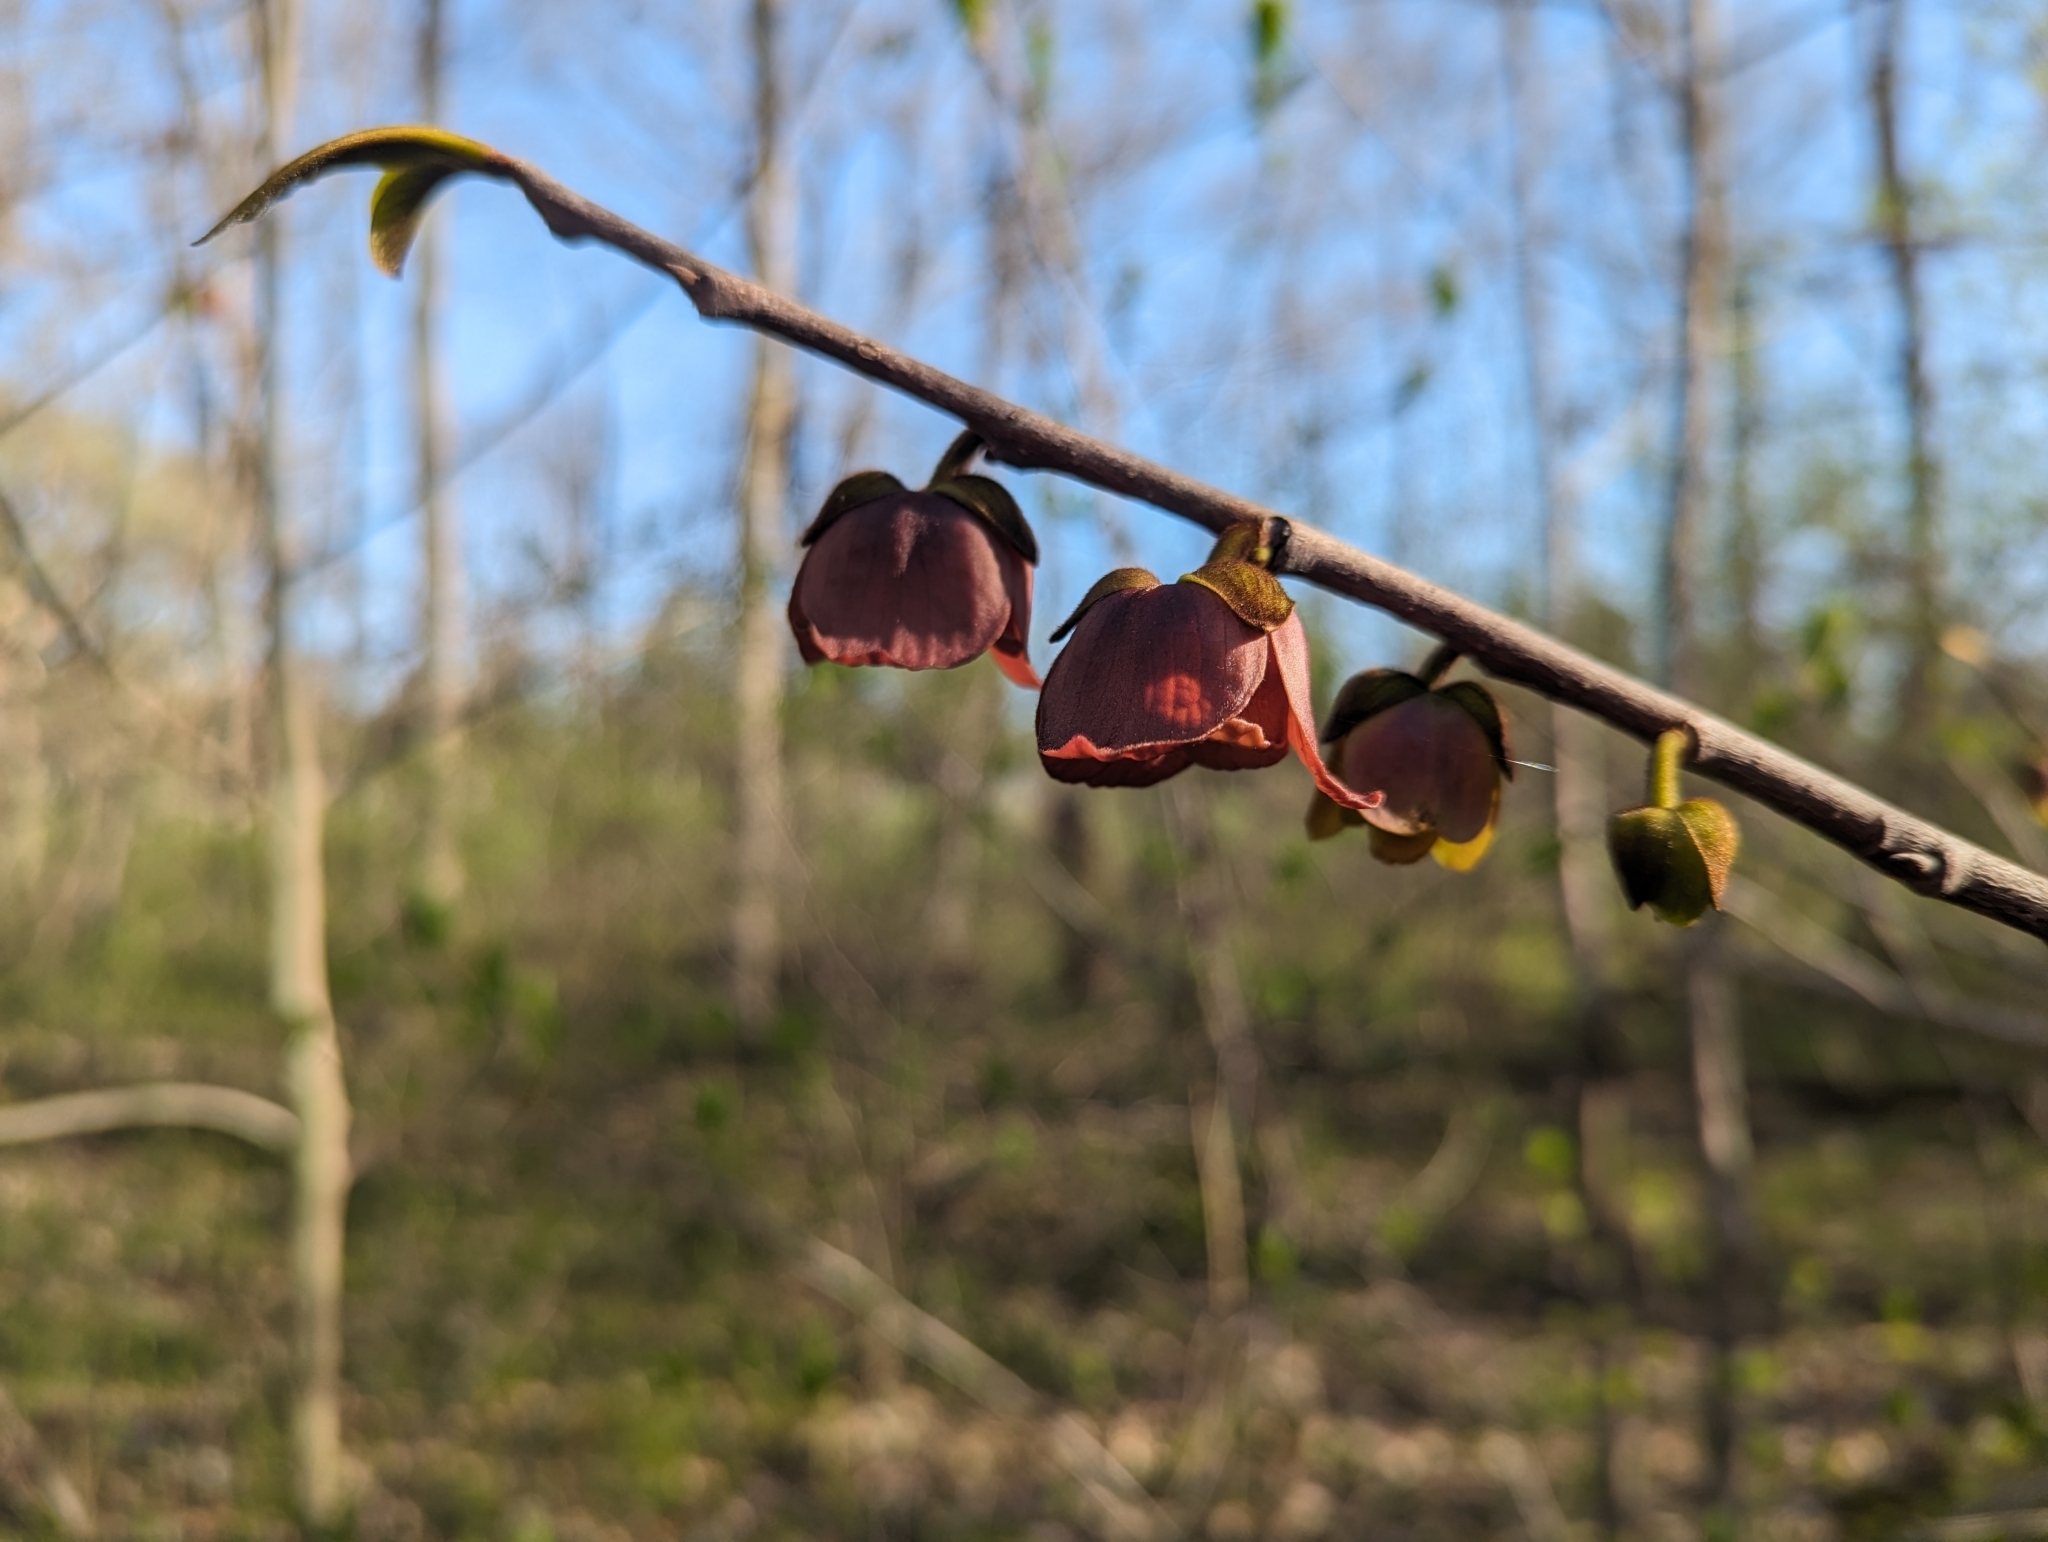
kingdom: Plantae
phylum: Tracheophyta
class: Magnoliopsida
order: Magnoliales
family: Annonaceae
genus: Asimina
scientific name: Asimina triloba
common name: Dog-banana
